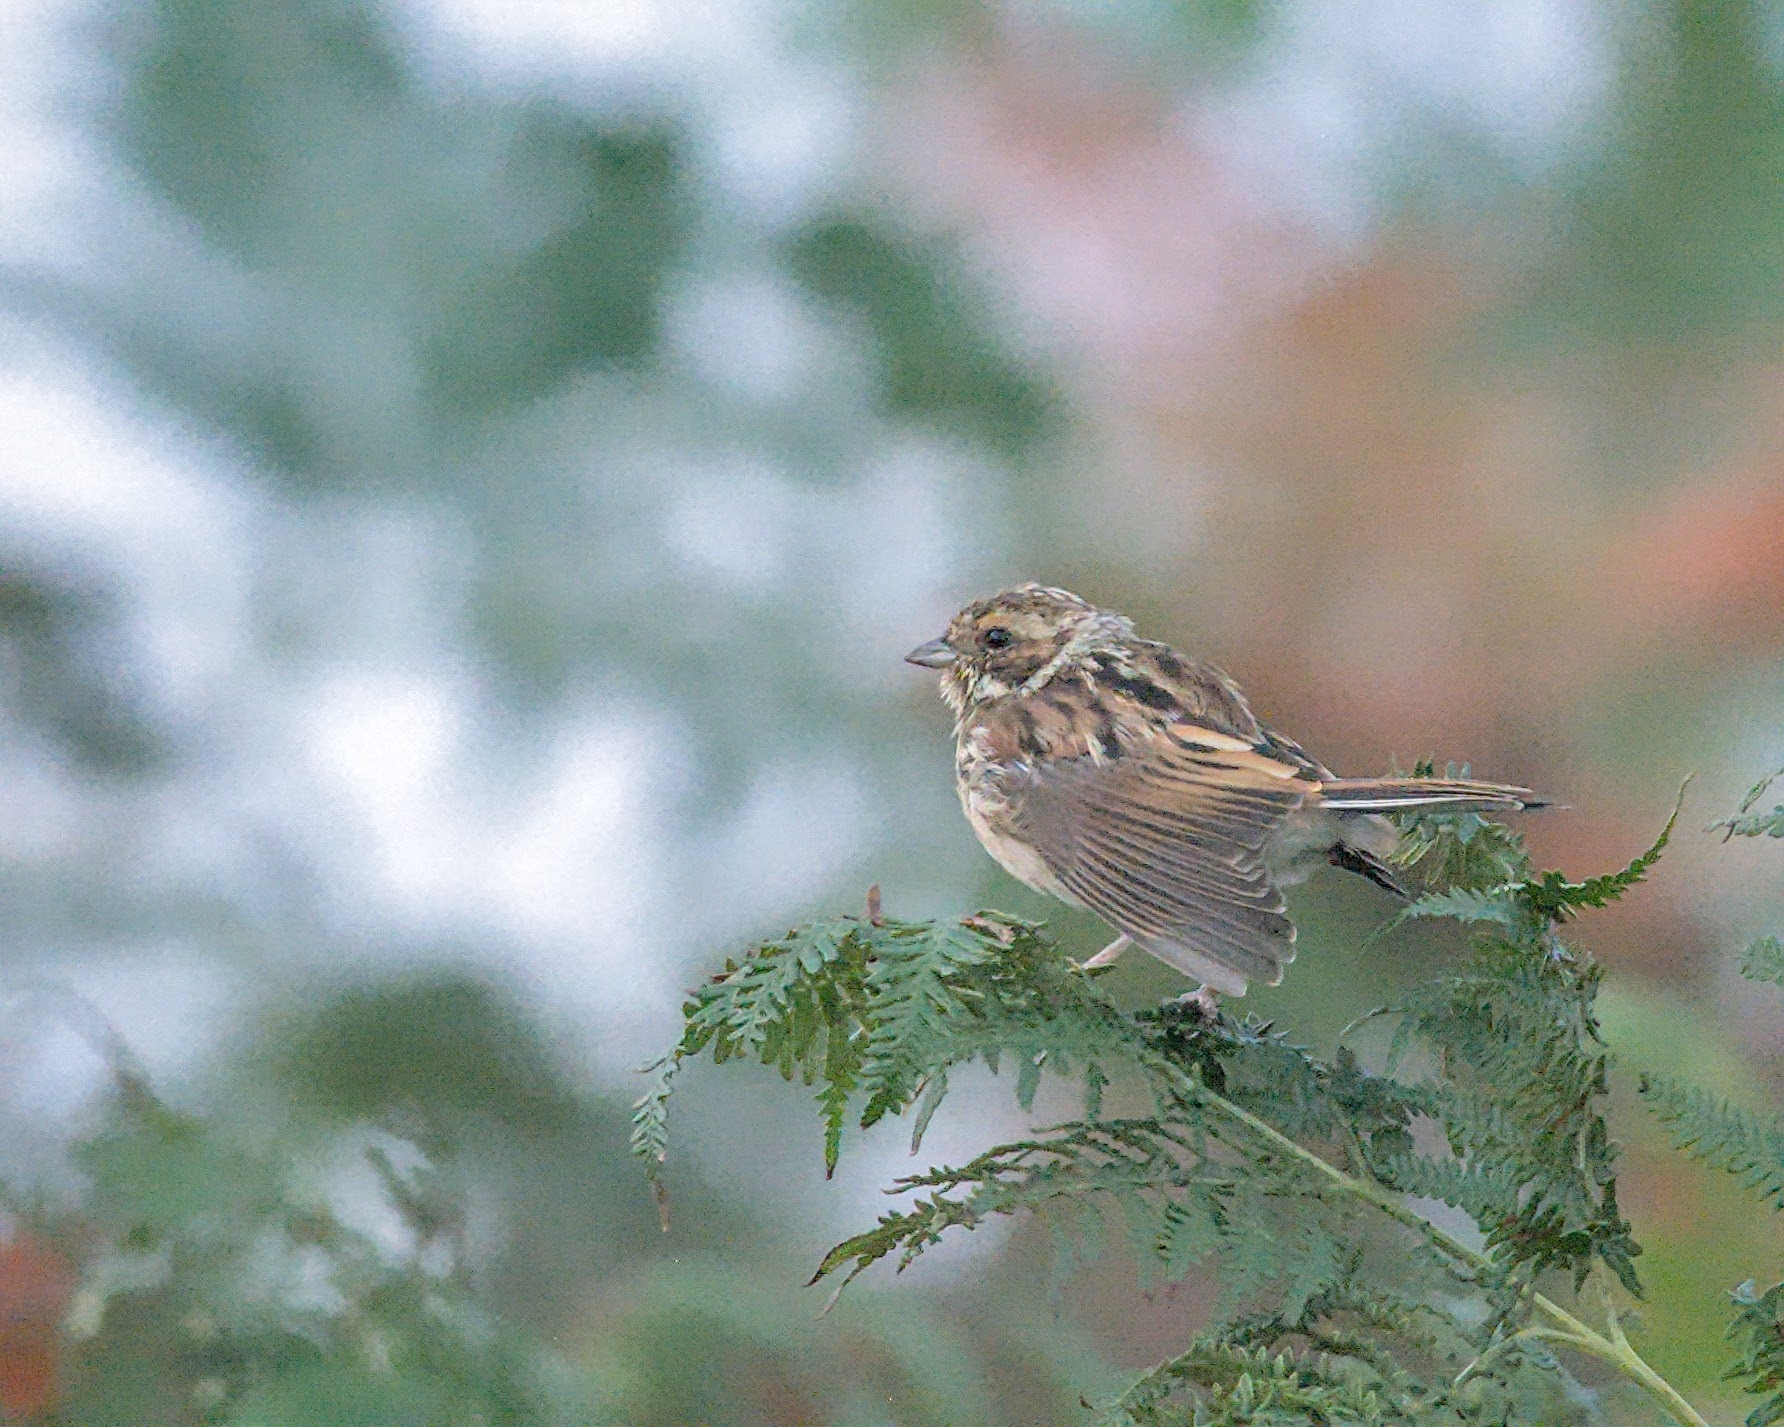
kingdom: Animalia
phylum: Chordata
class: Aves
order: Passeriformes
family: Emberizidae
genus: Emberiza
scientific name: Emberiza schoeniclus
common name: Reed bunting
